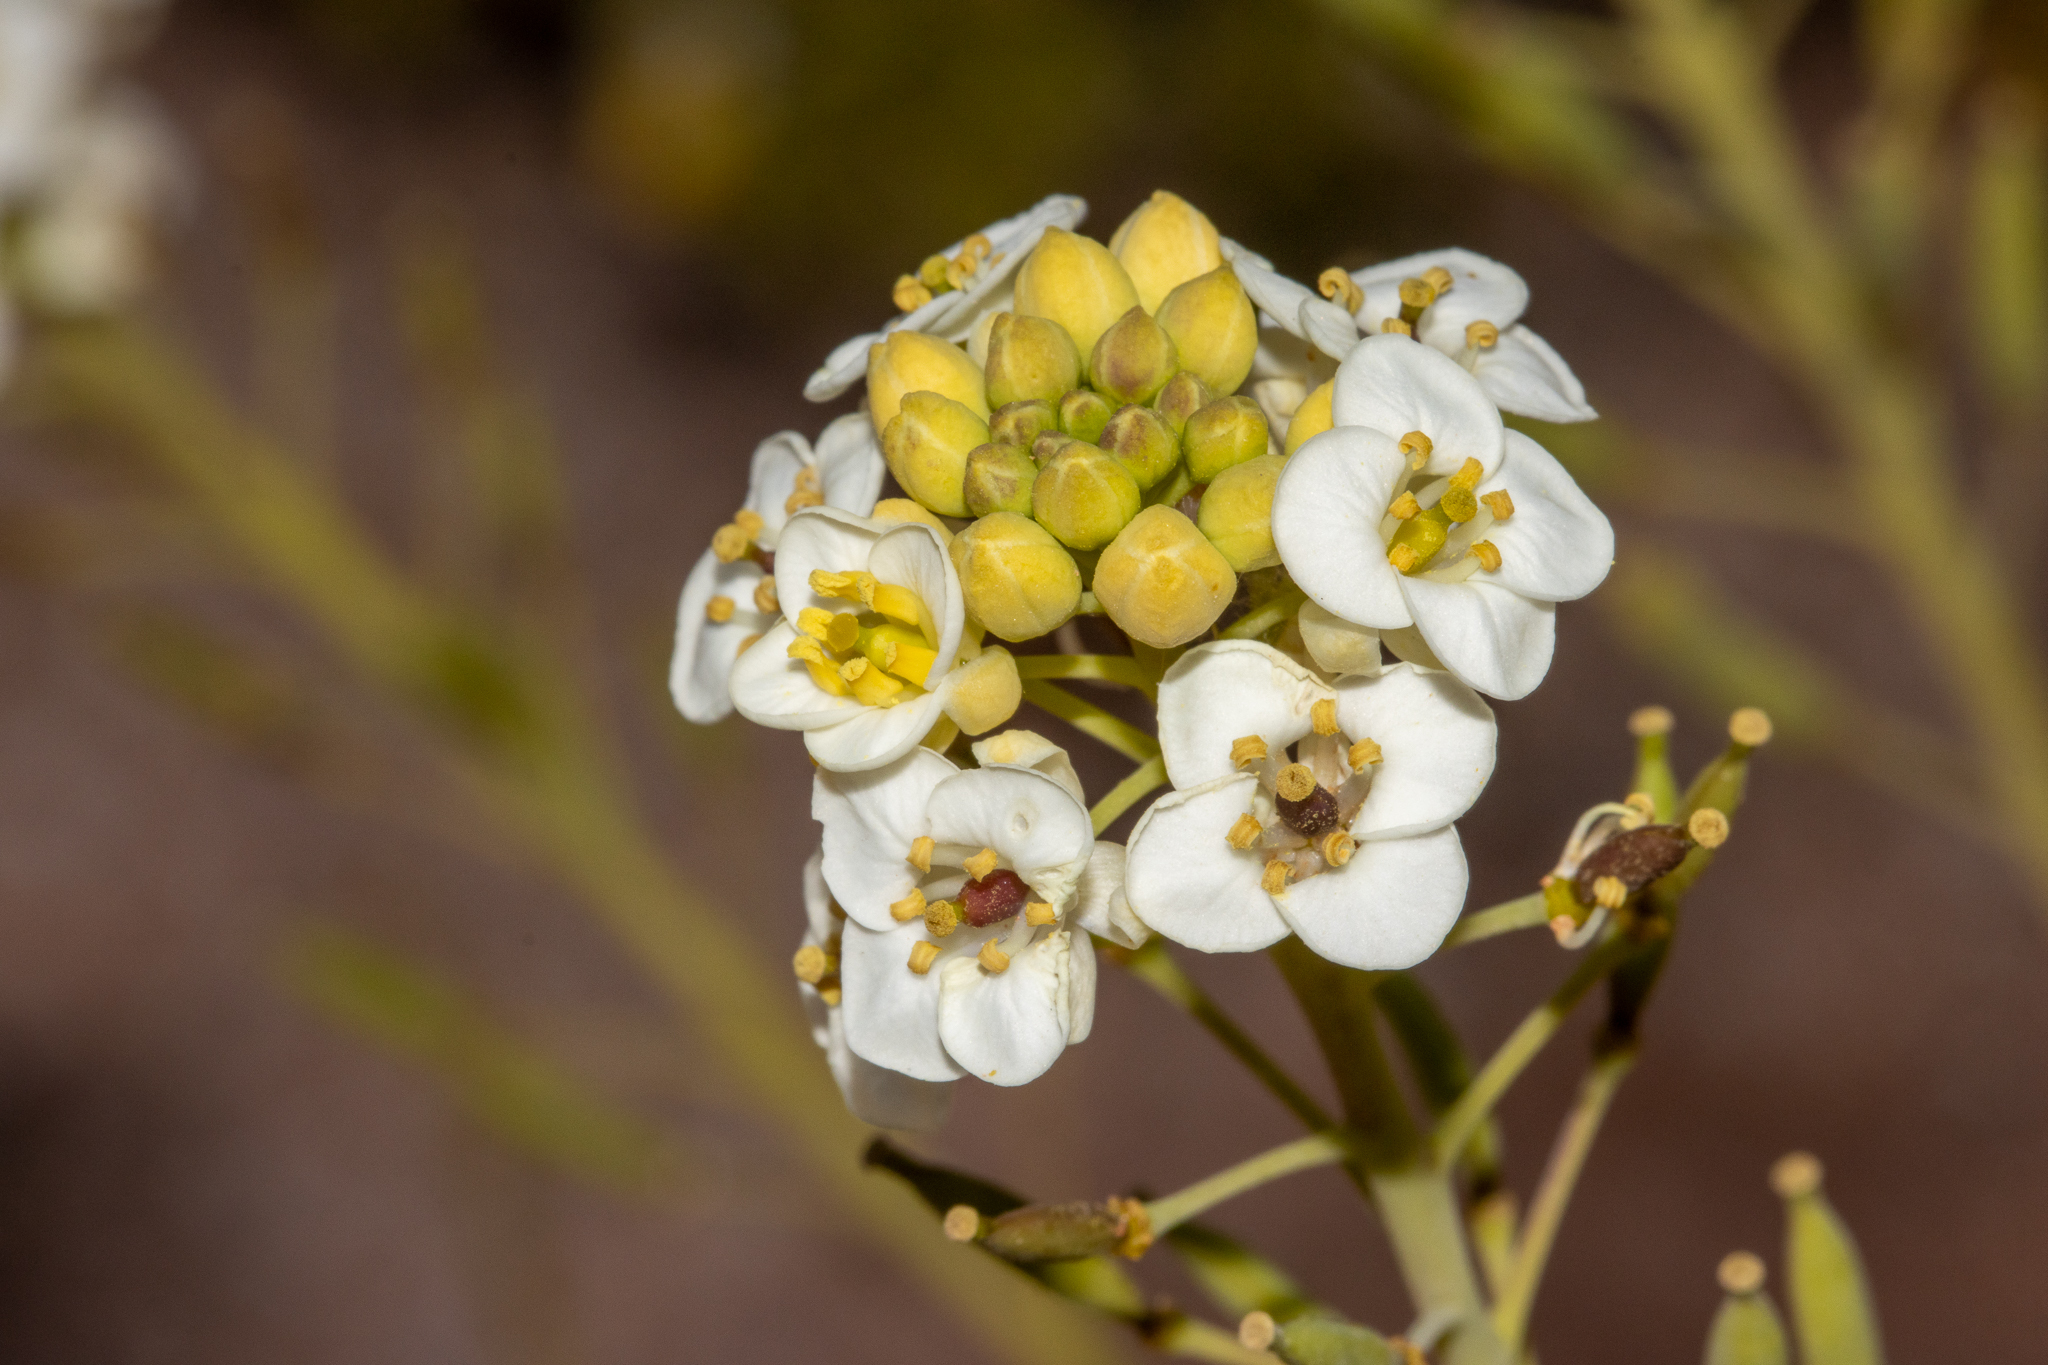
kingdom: Plantae
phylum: Tracheophyta
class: Magnoliopsida
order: Brassicales
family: Brassicaceae
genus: Arabidella
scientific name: Arabidella glaucescens
